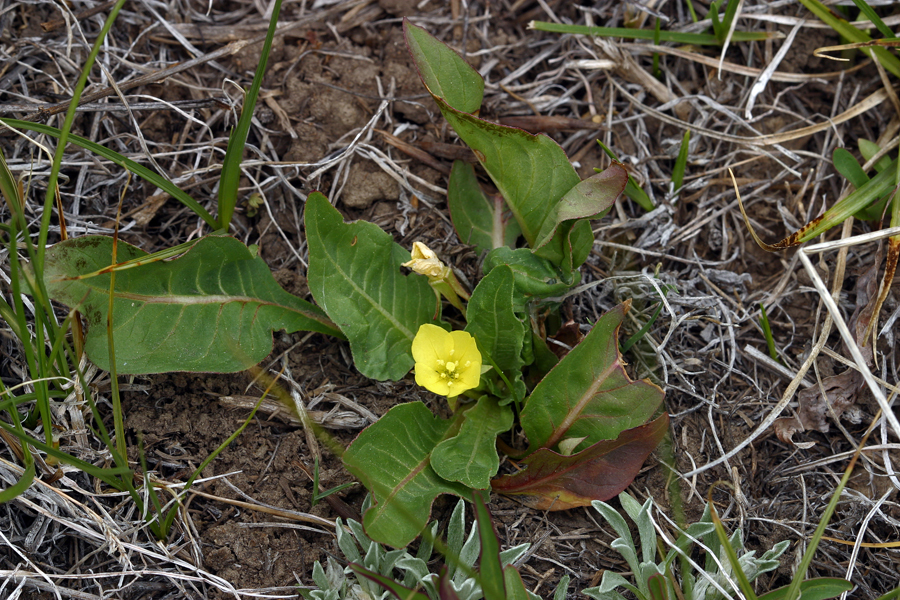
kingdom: Plantae
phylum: Tracheophyta
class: Magnoliopsida
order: Myrtales
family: Onagraceae
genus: Taraxia
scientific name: Taraxia subacaulis
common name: Diffuseflower evening primrose
